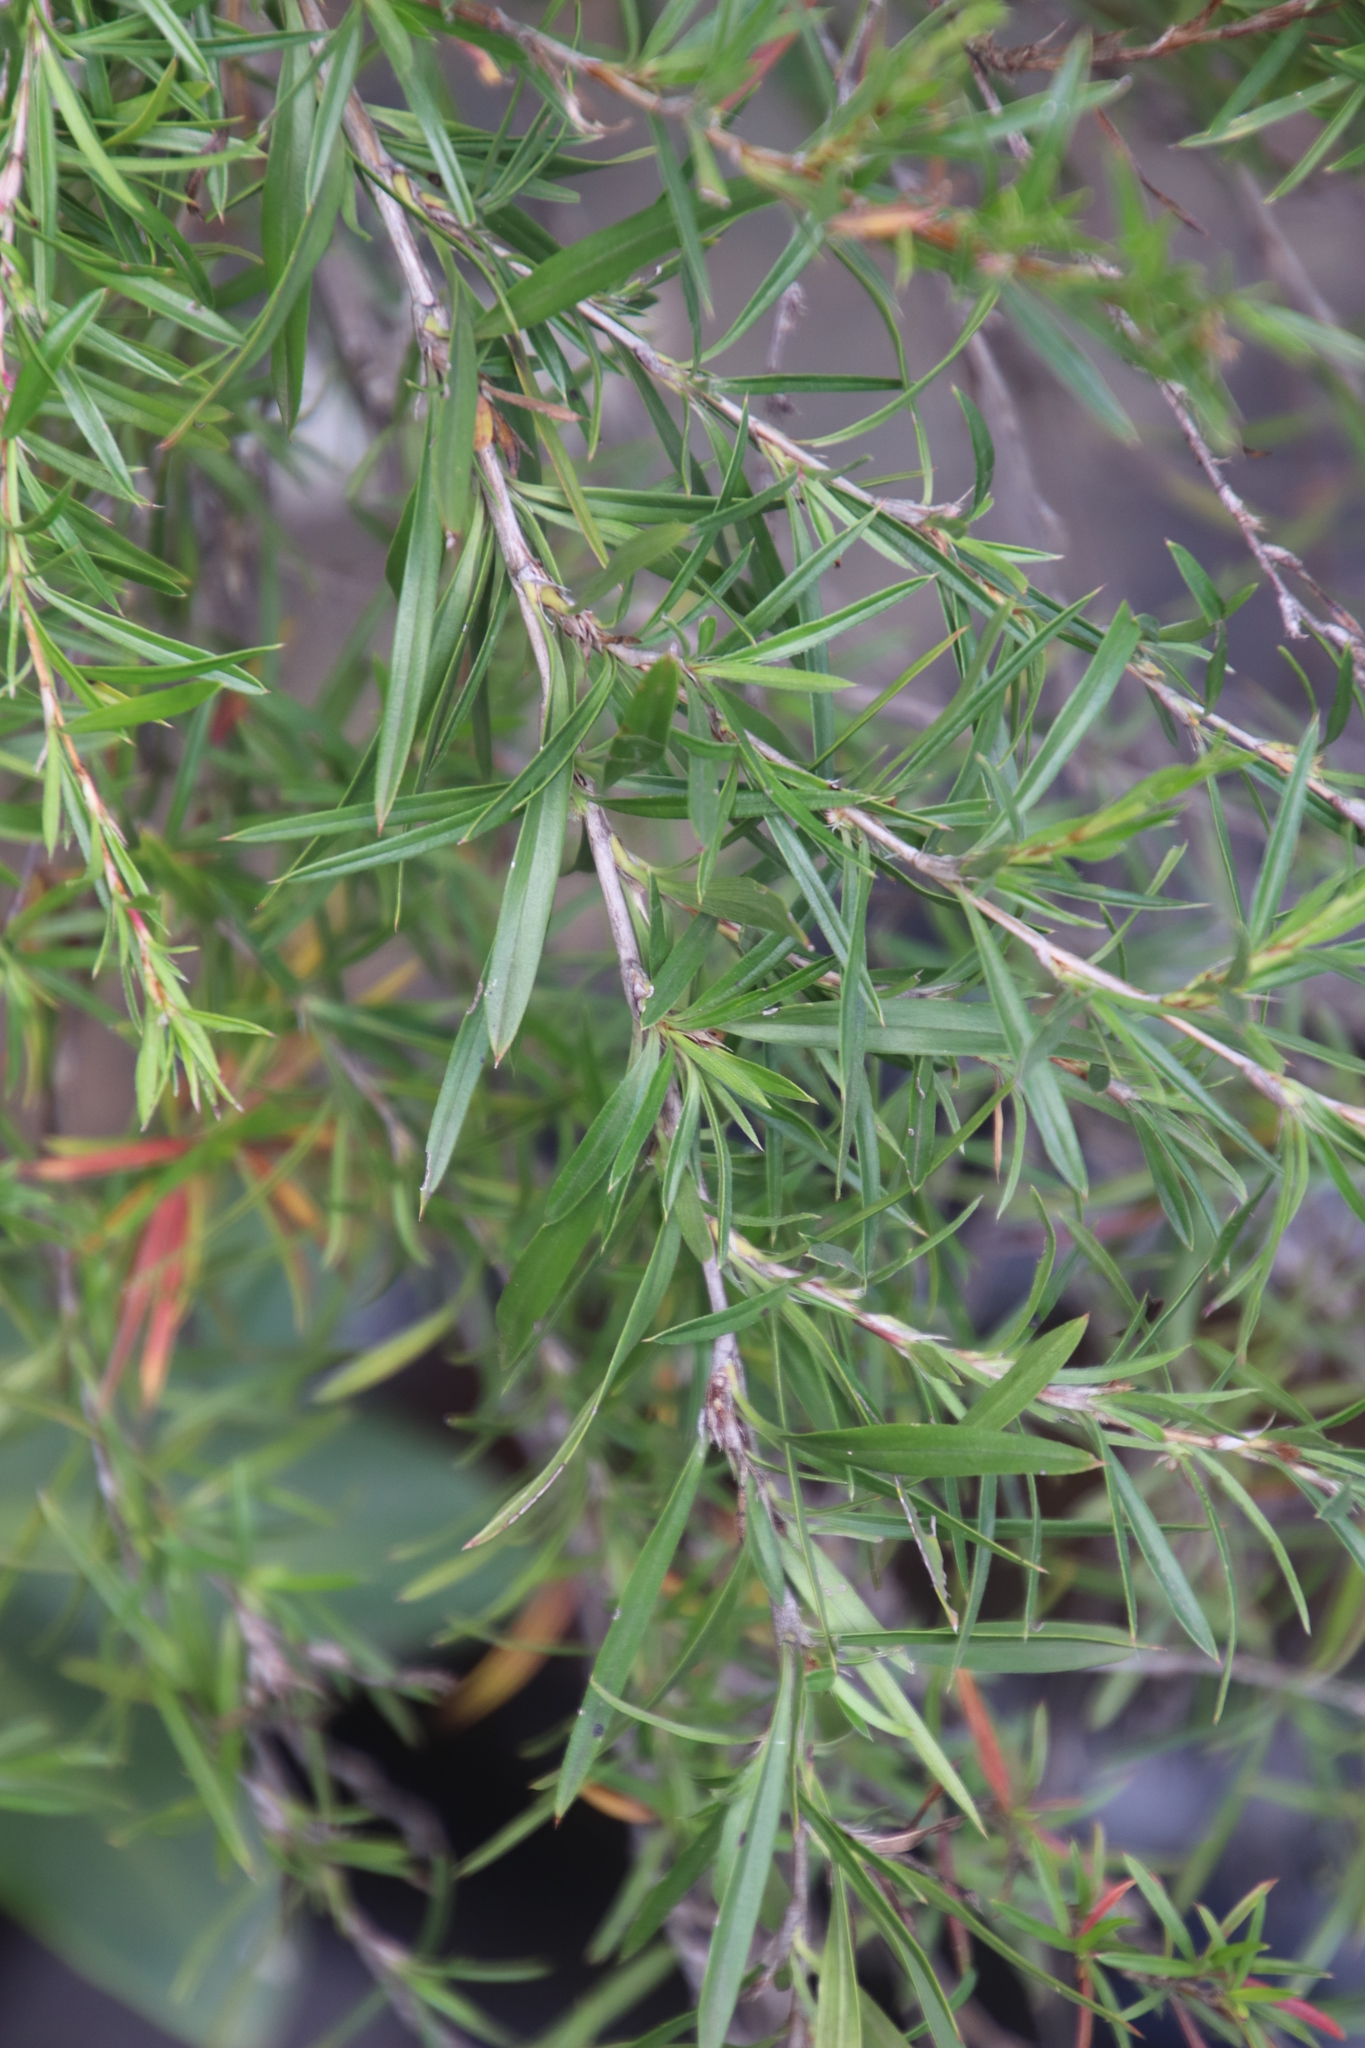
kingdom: Plantae
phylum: Tracheophyta
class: Magnoliopsida
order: Rosales
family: Rosaceae
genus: Cliffortia
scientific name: Cliffortia strobilifera
